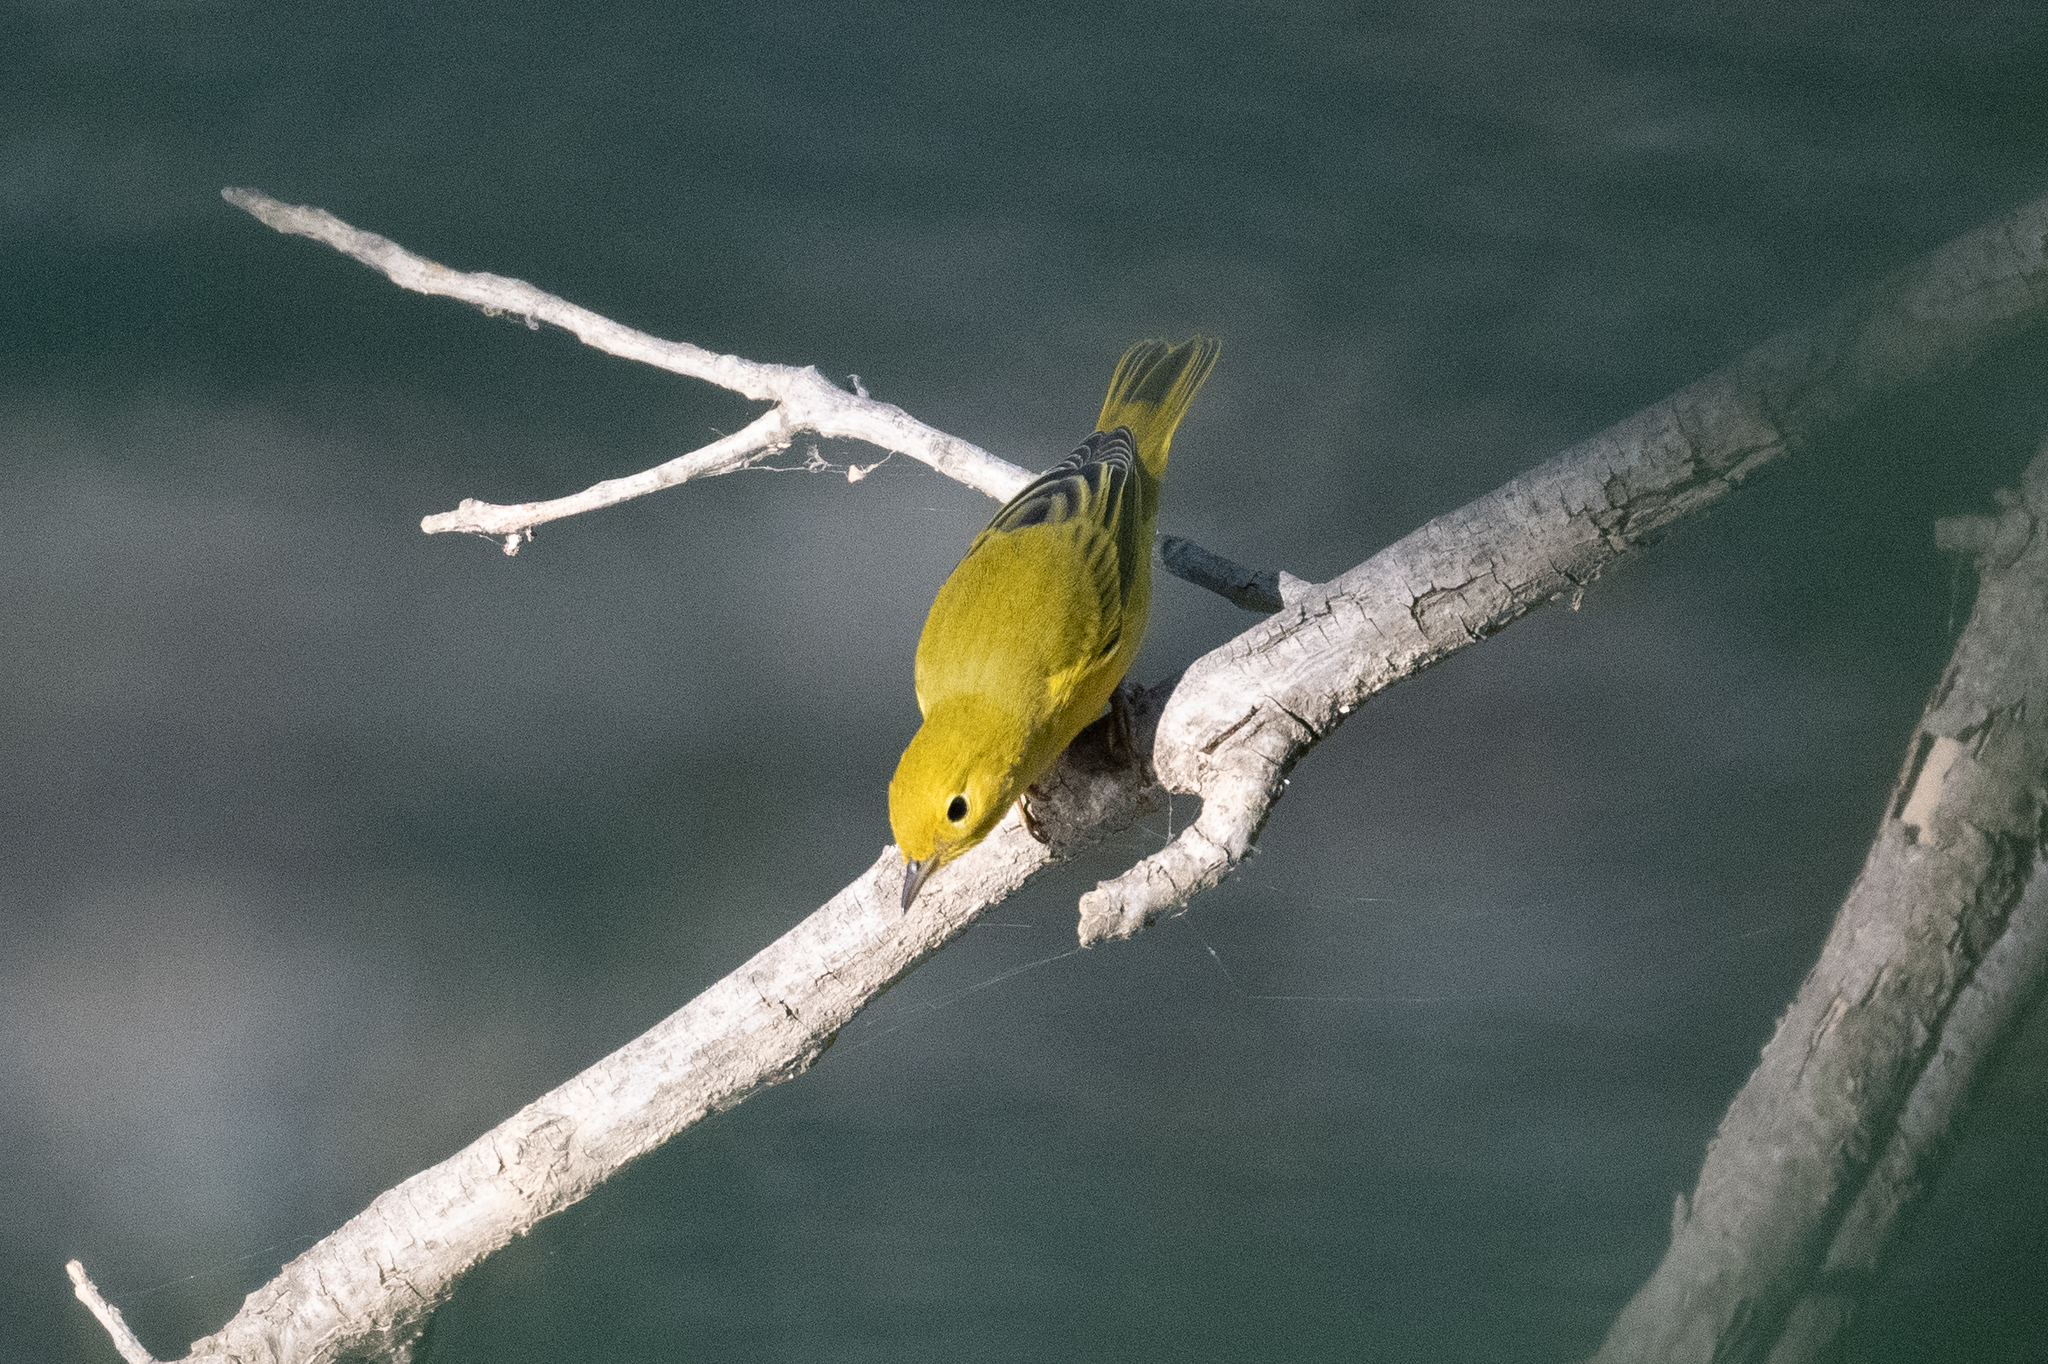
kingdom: Animalia
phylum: Chordata
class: Aves
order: Passeriformes
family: Parulidae
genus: Setophaga
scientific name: Setophaga petechia
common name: Yellow warbler
